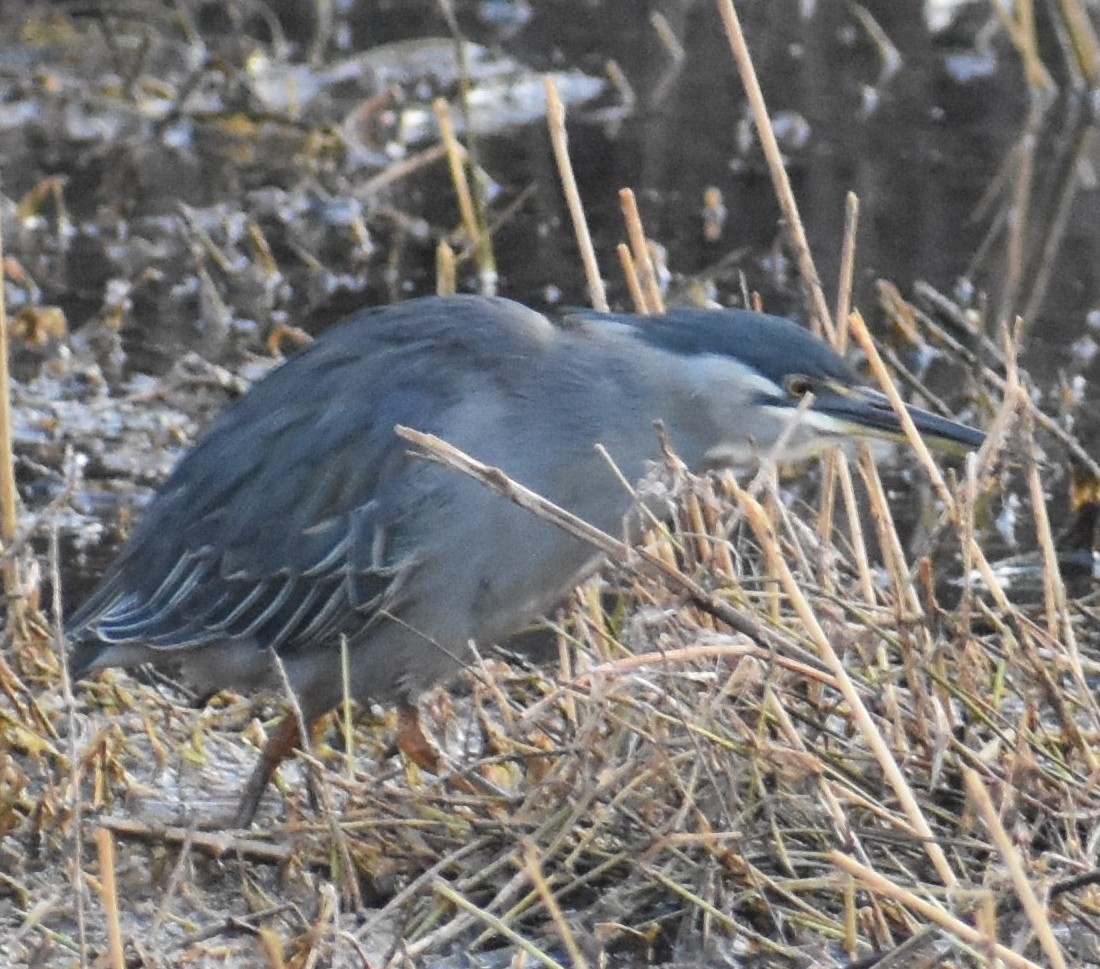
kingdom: Animalia
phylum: Chordata
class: Aves
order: Pelecaniformes
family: Ardeidae
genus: Butorides
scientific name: Butorides striata
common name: Striated heron
